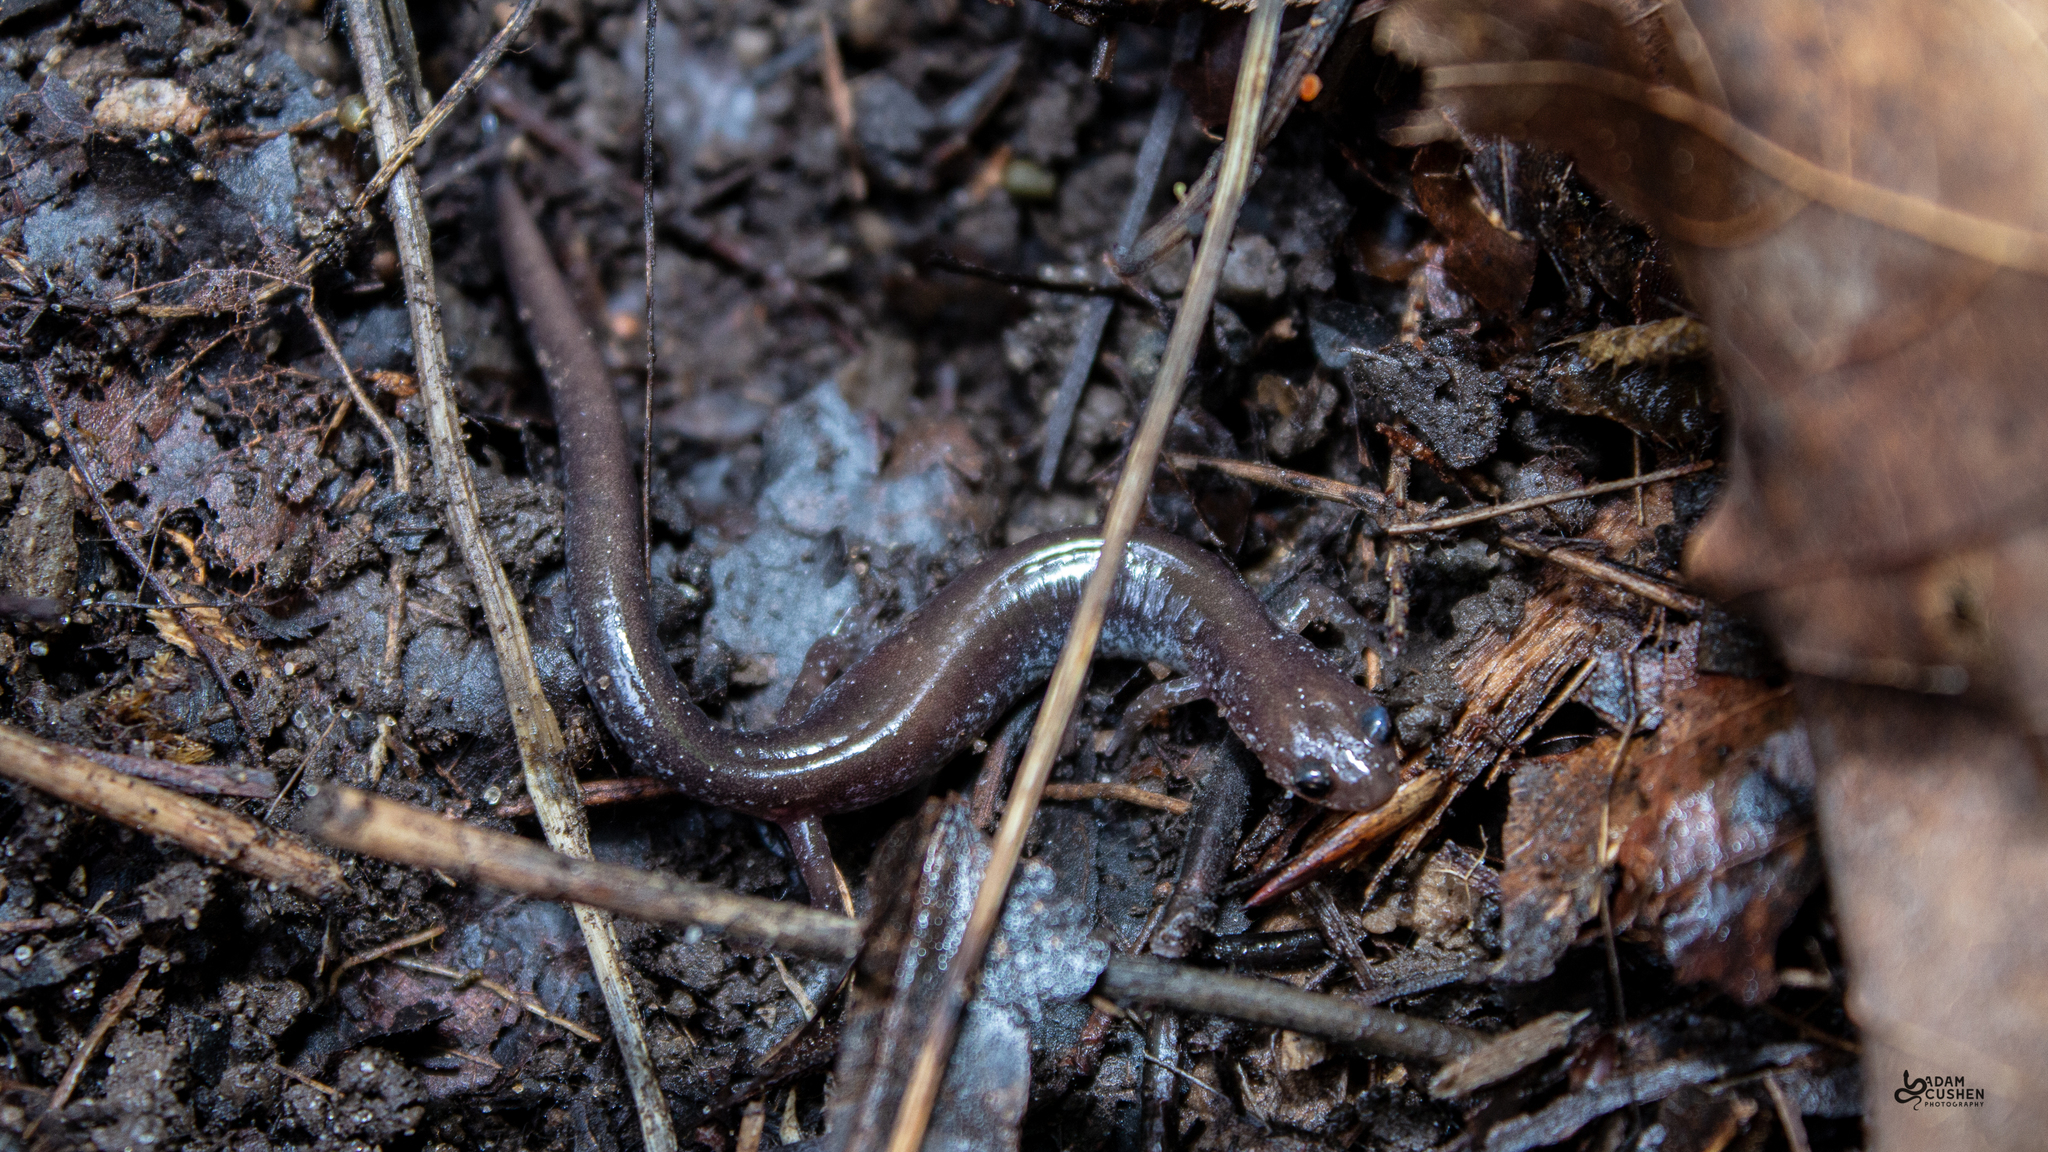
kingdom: Animalia
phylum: Chordata
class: Amphibia
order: Caudata
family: Plethodontidae
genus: Plethodon
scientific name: Plethodon cinereus
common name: Redback salamander
